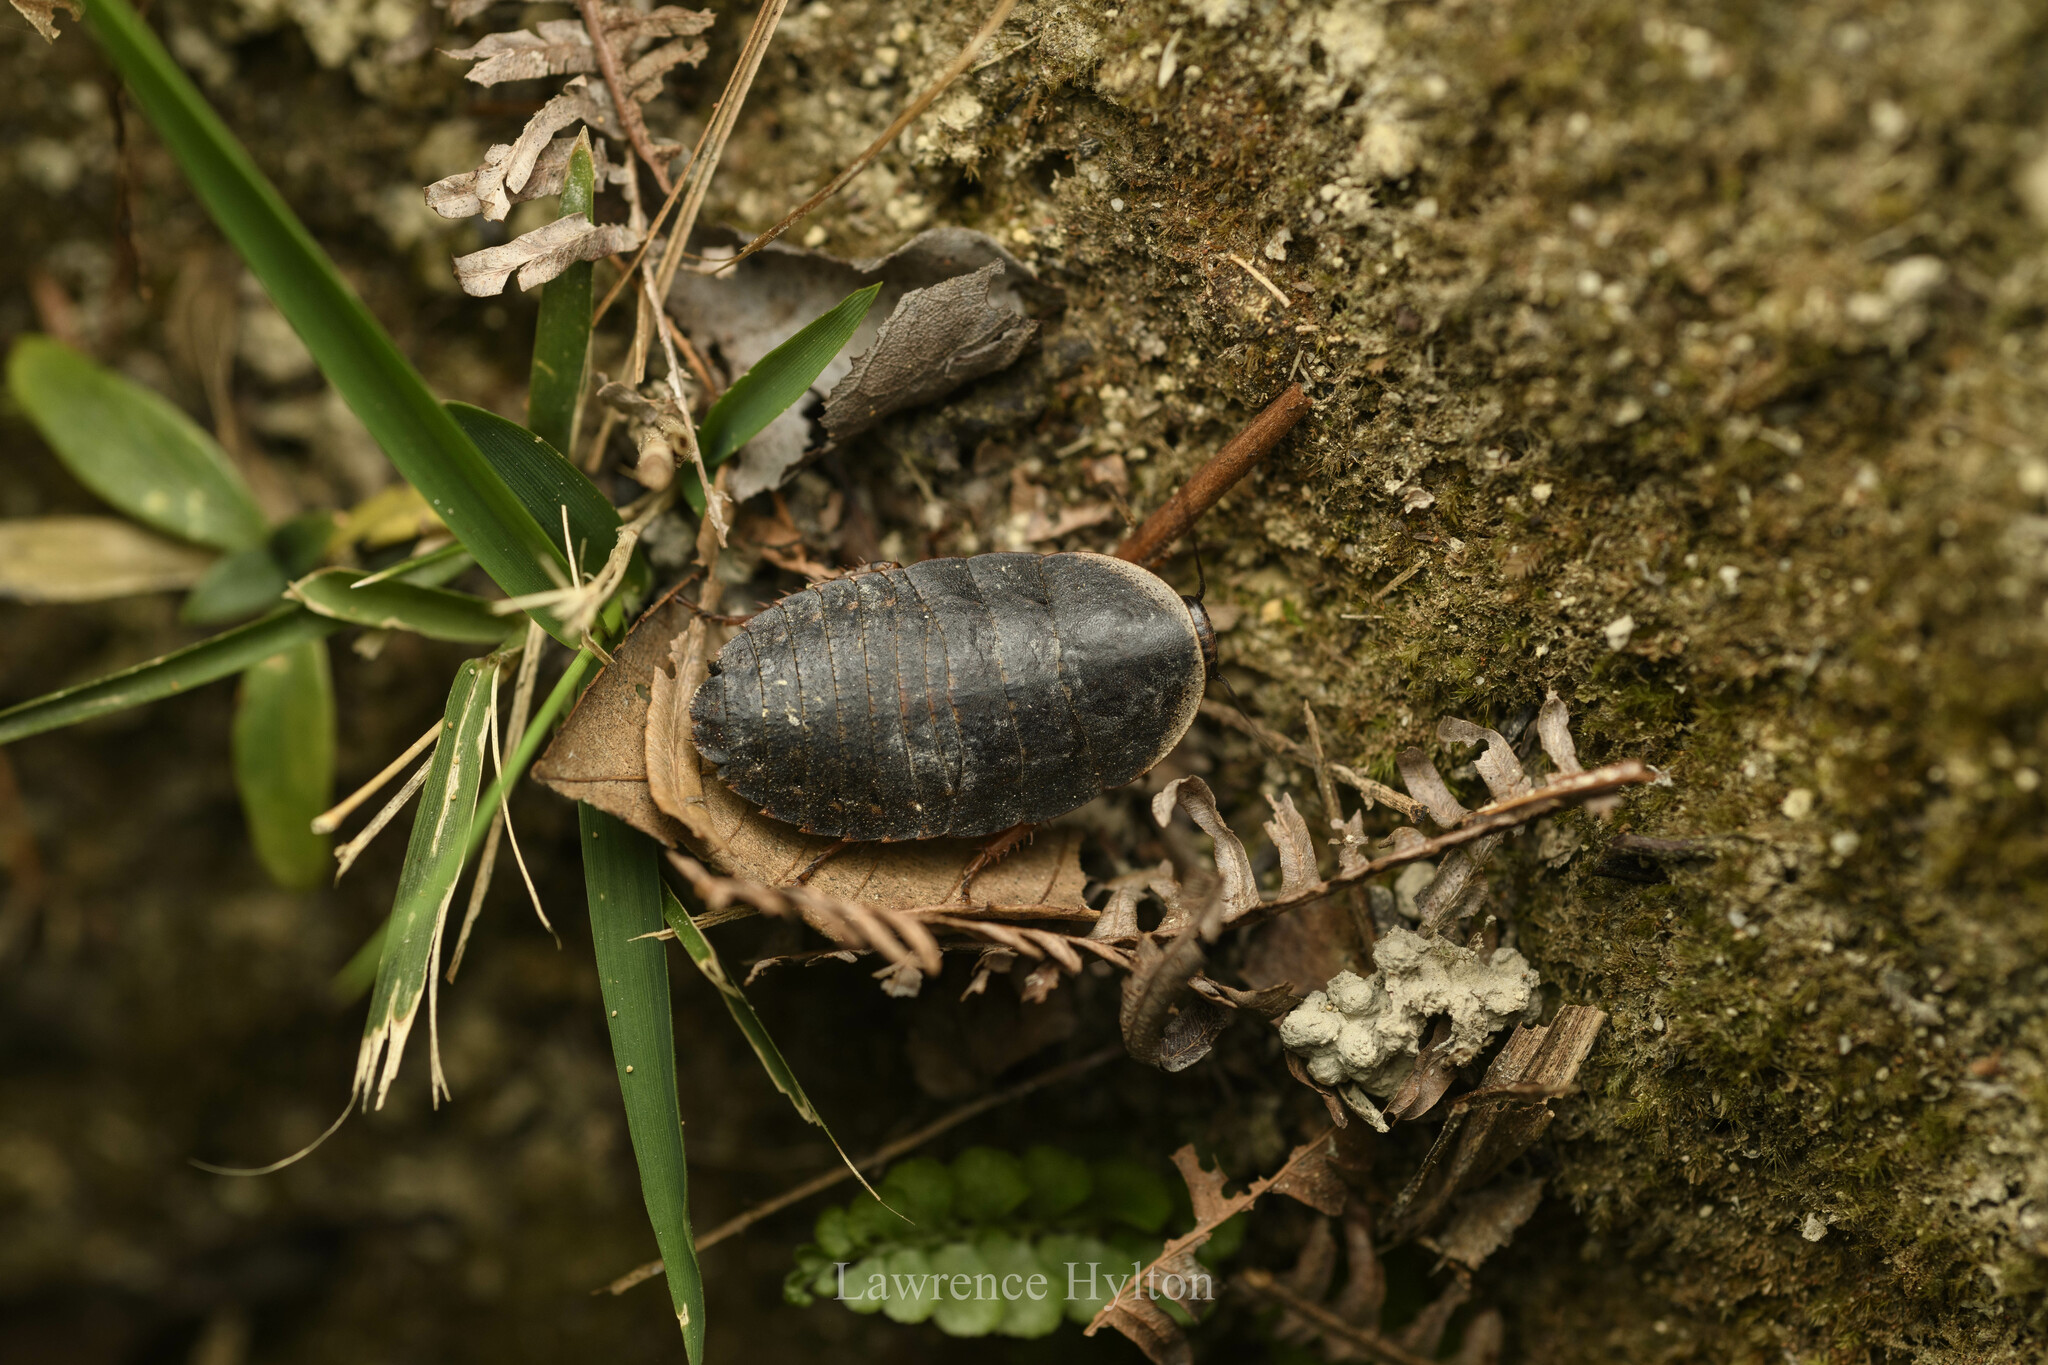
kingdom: Animalia
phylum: Arthropoda
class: Insecta
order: Blattodea
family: Blaberidae
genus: Opisthoplatia
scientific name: Opisthoplatia orientalis
